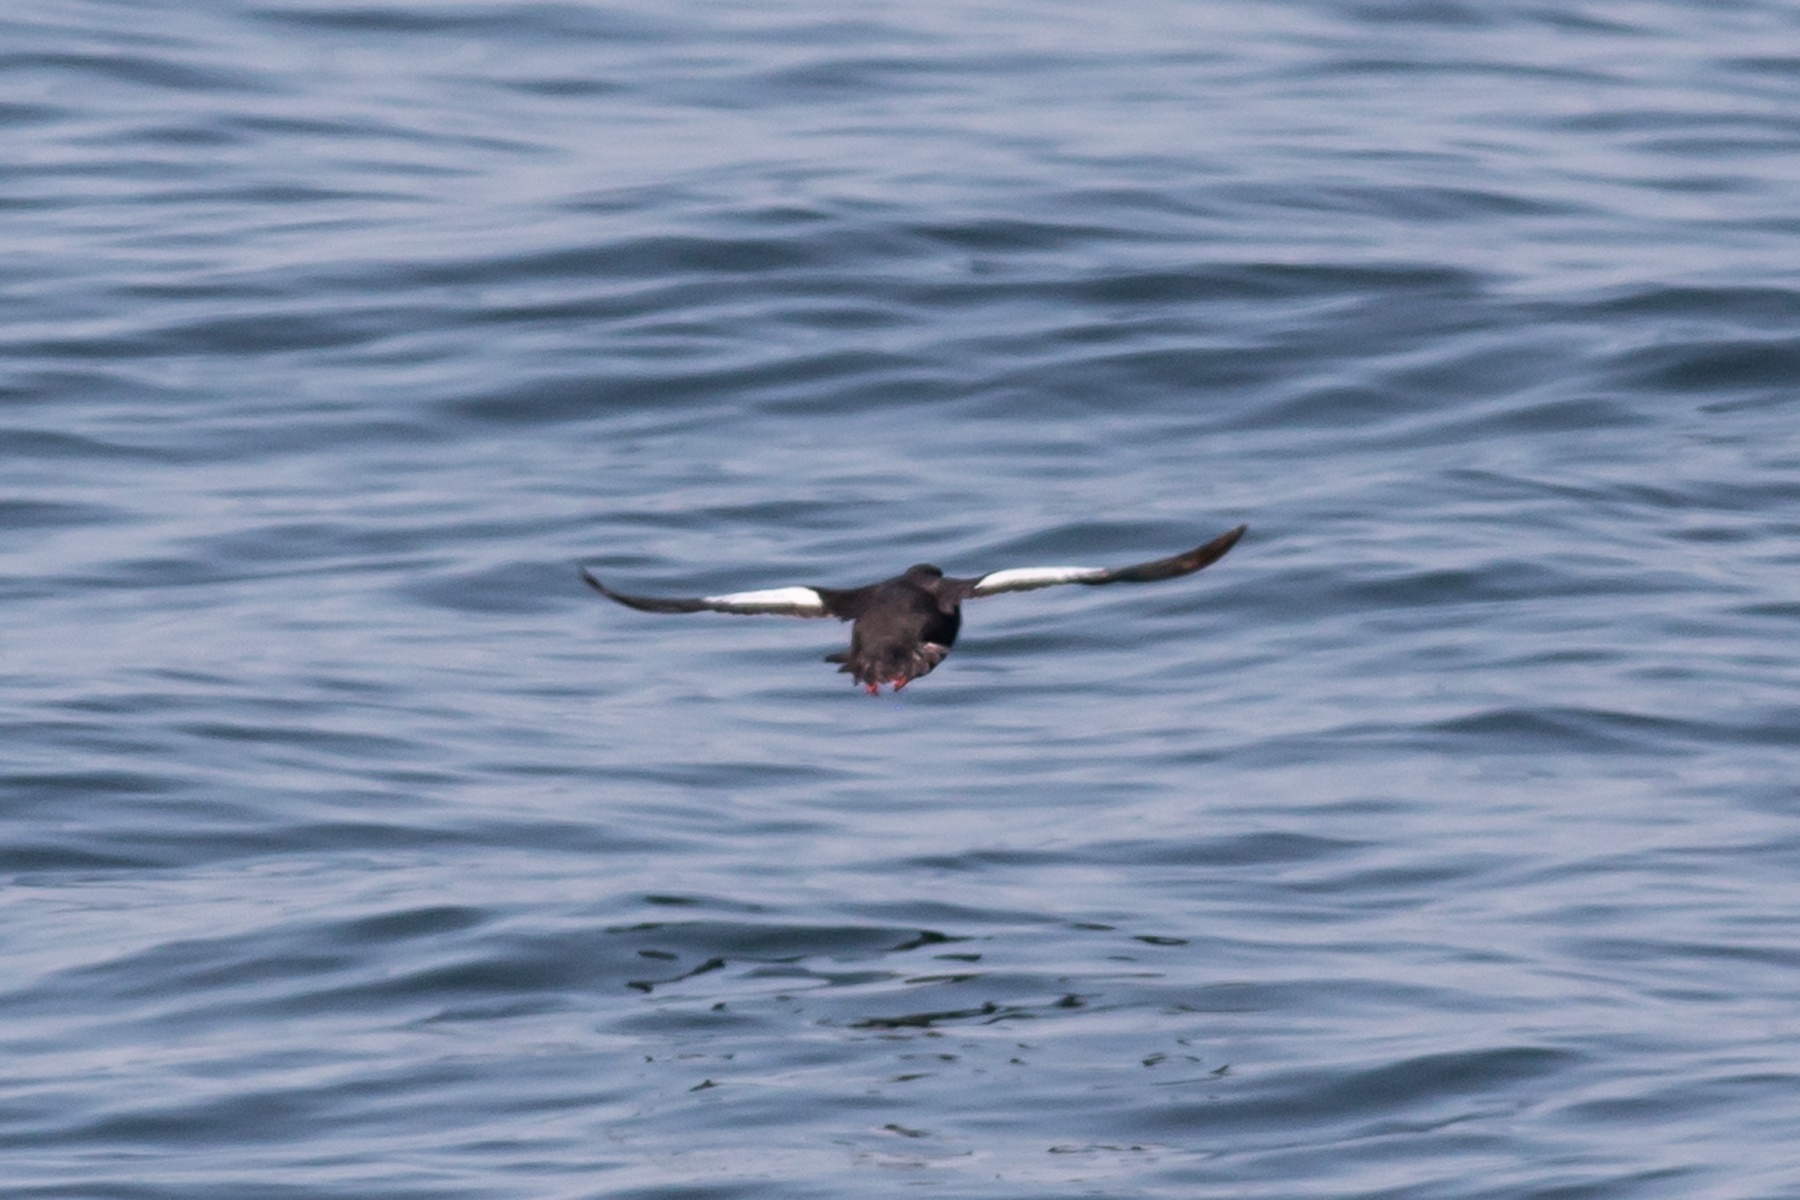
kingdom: Animalia
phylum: Chordata
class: Aves
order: Charadriiformes
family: Alcidae
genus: Cepphus
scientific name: Cepphus grylle
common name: Black guillemot
